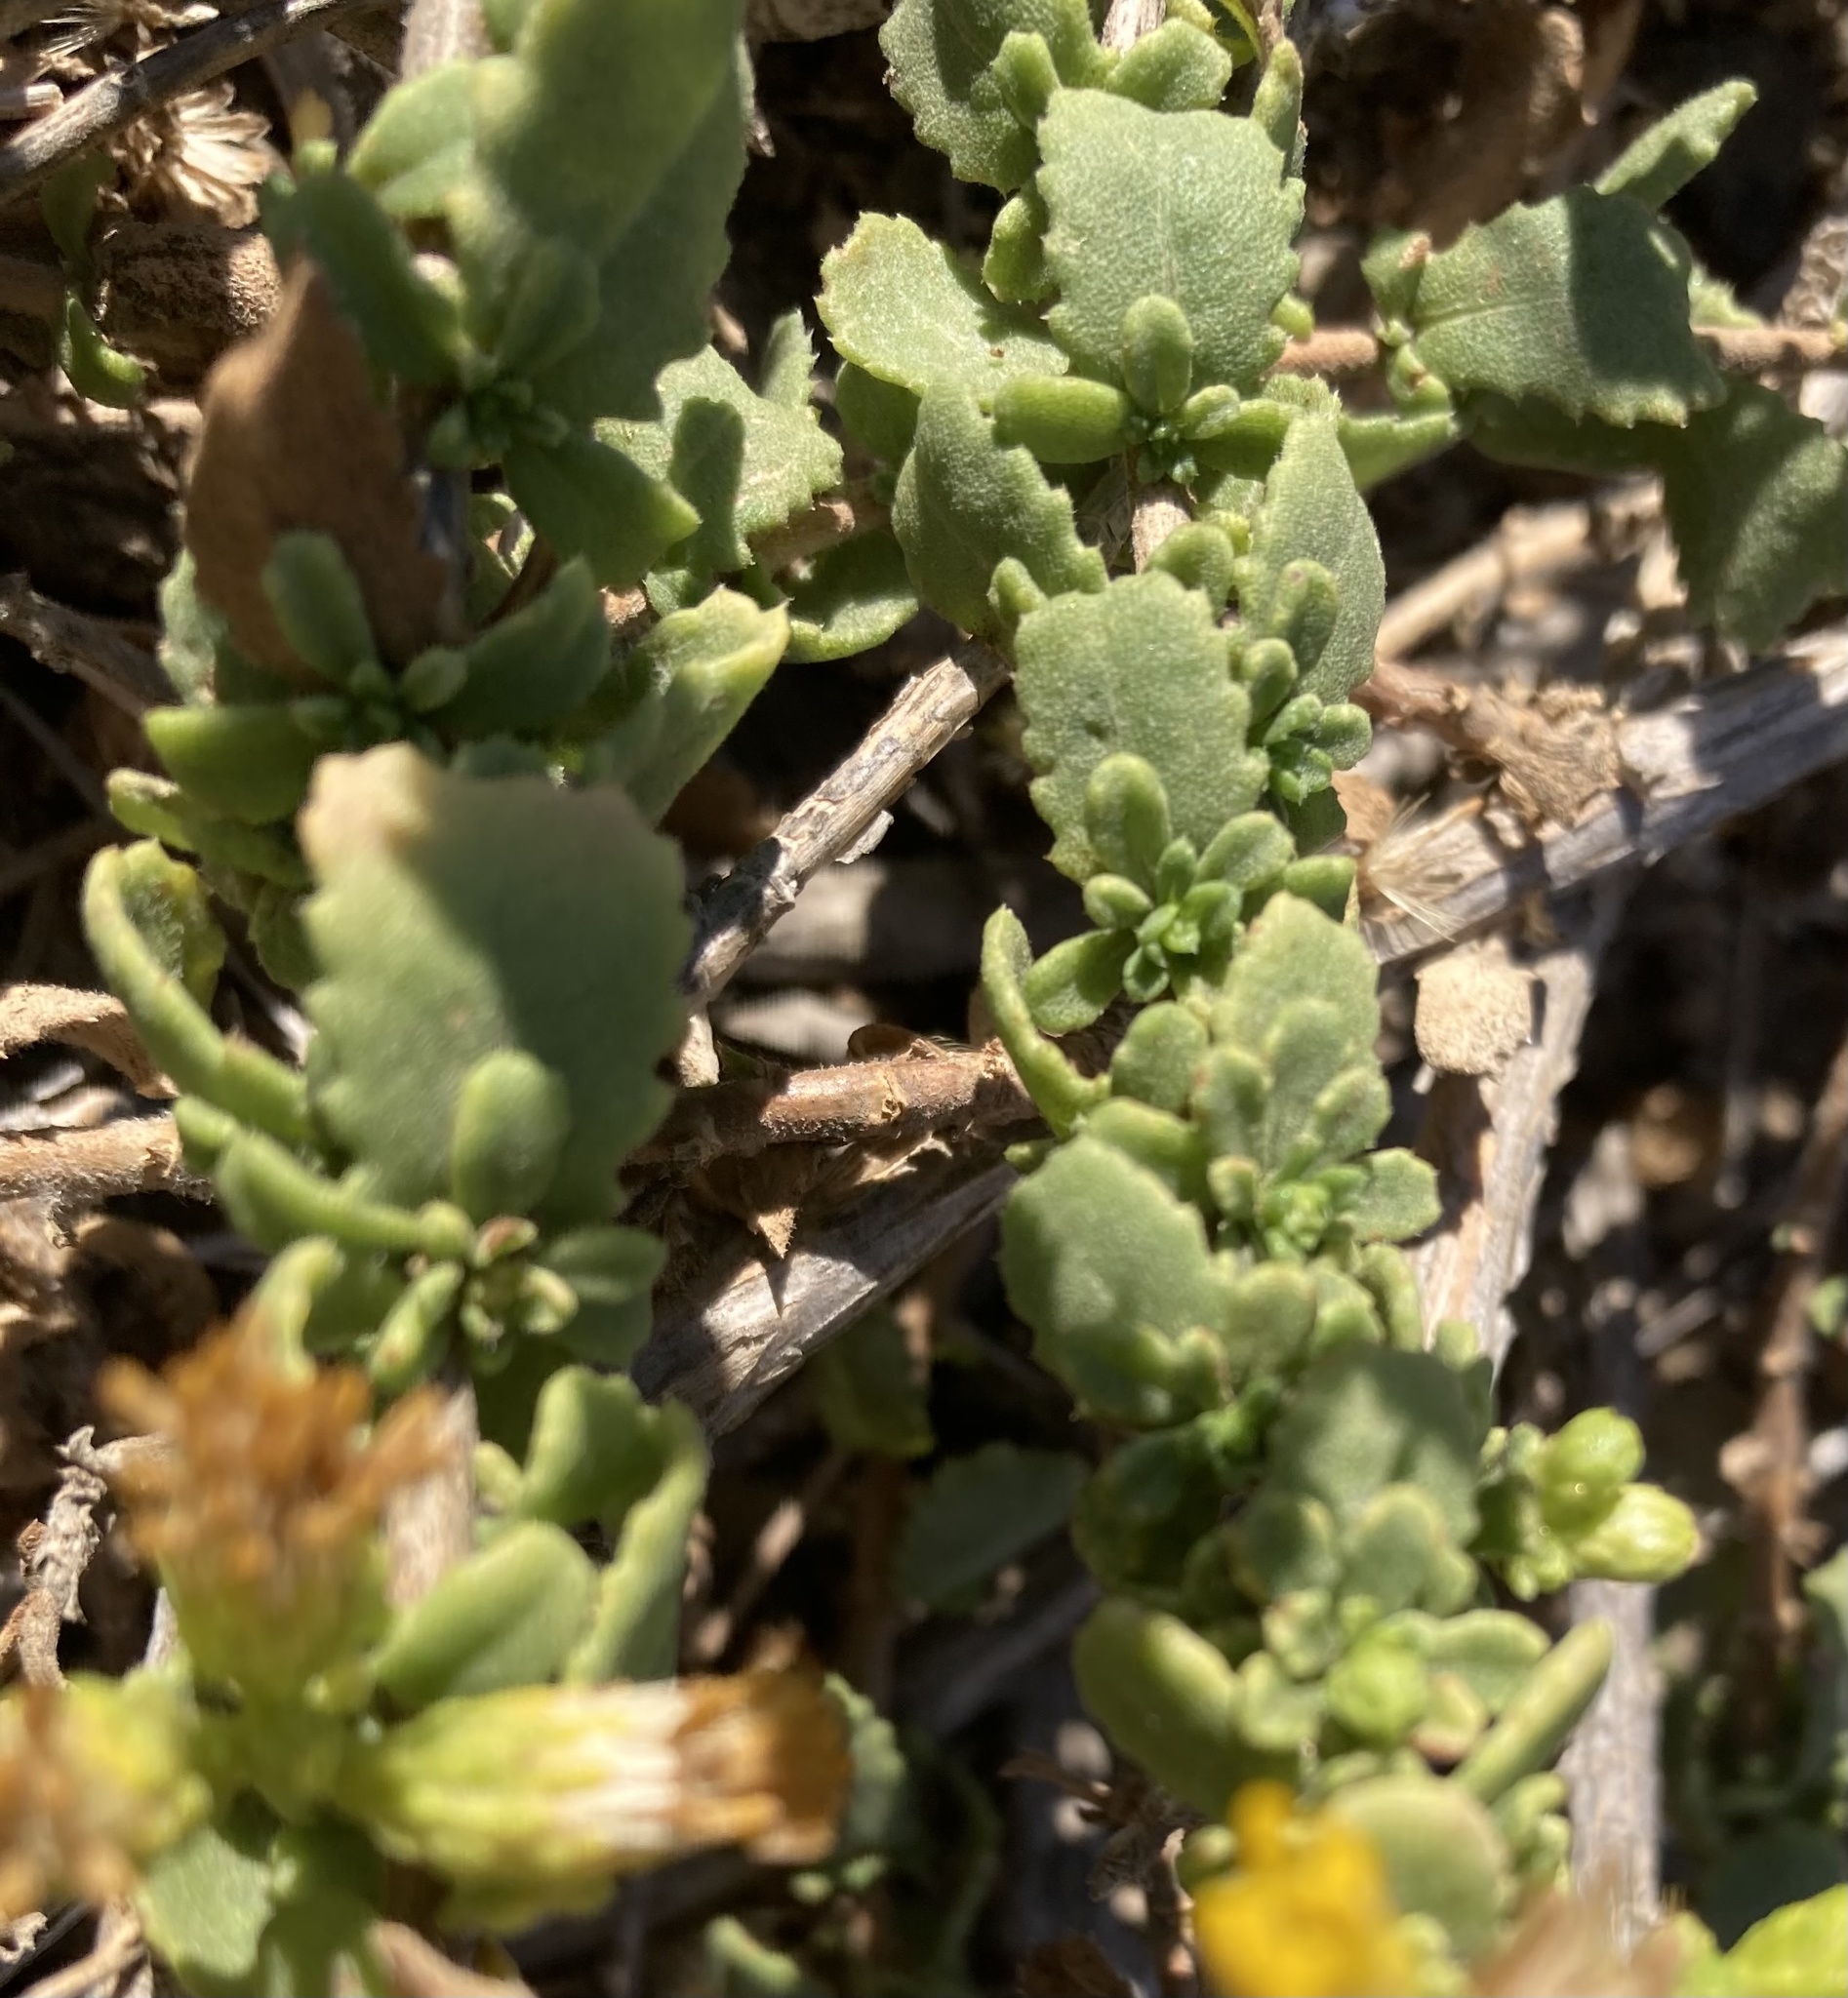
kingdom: Plantae
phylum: Tracheophyta
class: Magnoliopsida
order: Asterales
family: Asteraceae
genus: Isocoma
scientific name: Isocoma menziesii
